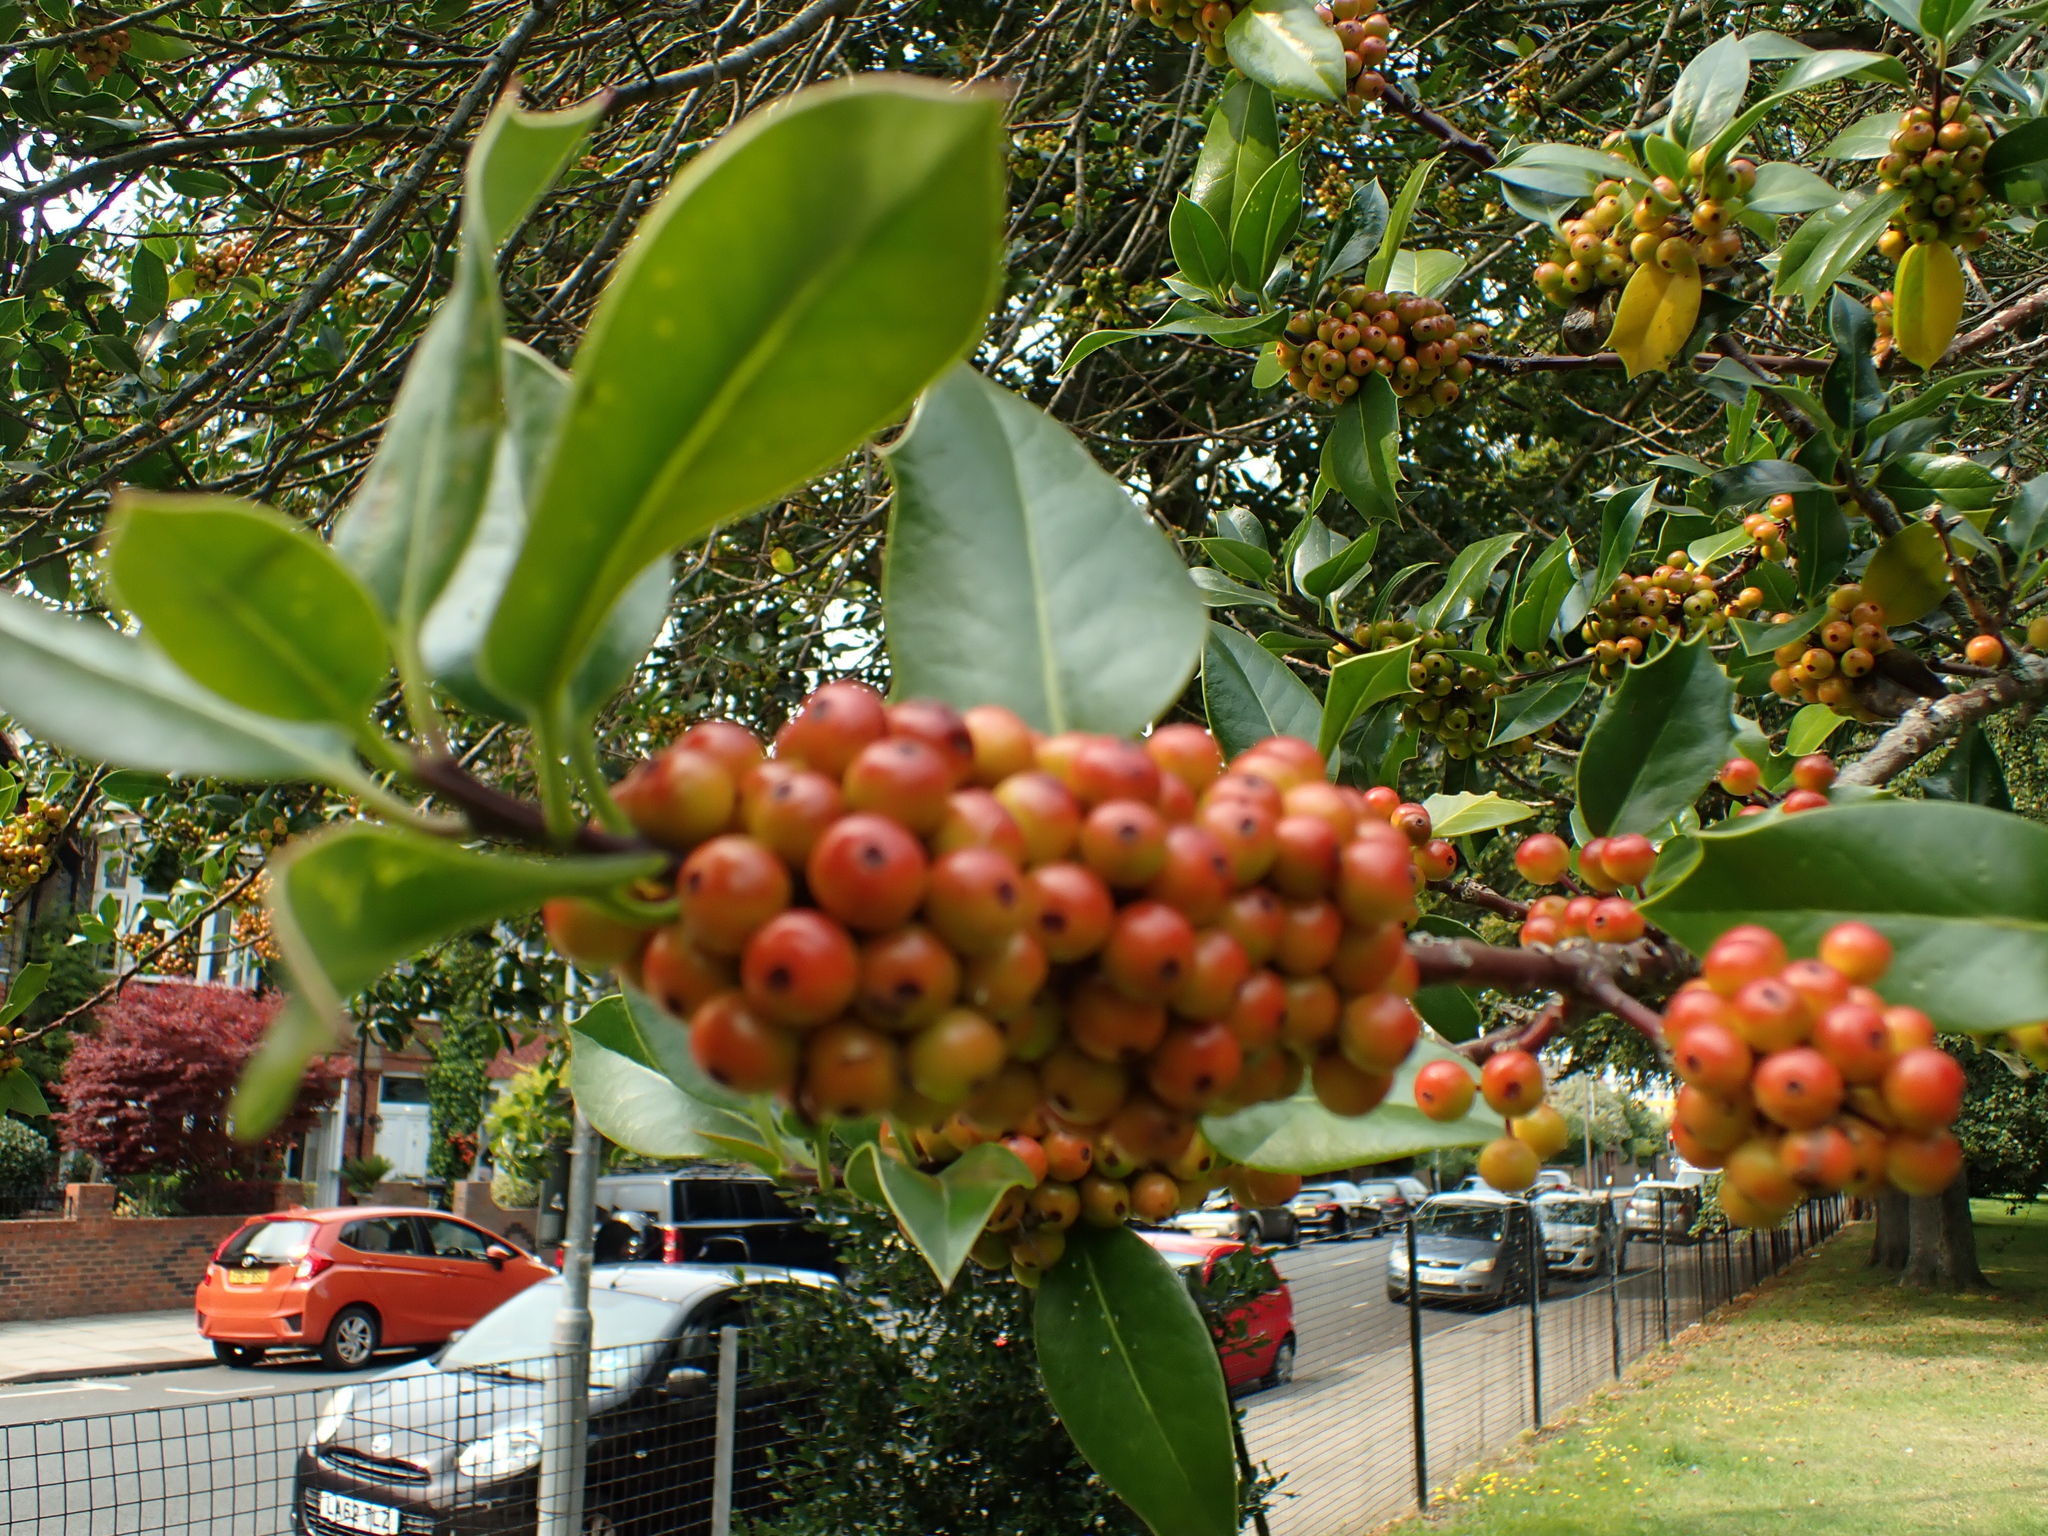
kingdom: Plantae
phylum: Tracheophyta
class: Magnoliopsida
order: Aquifoliales
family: Aquifoliaceae
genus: Ilex
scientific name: Ilex aquifolium
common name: English holly
